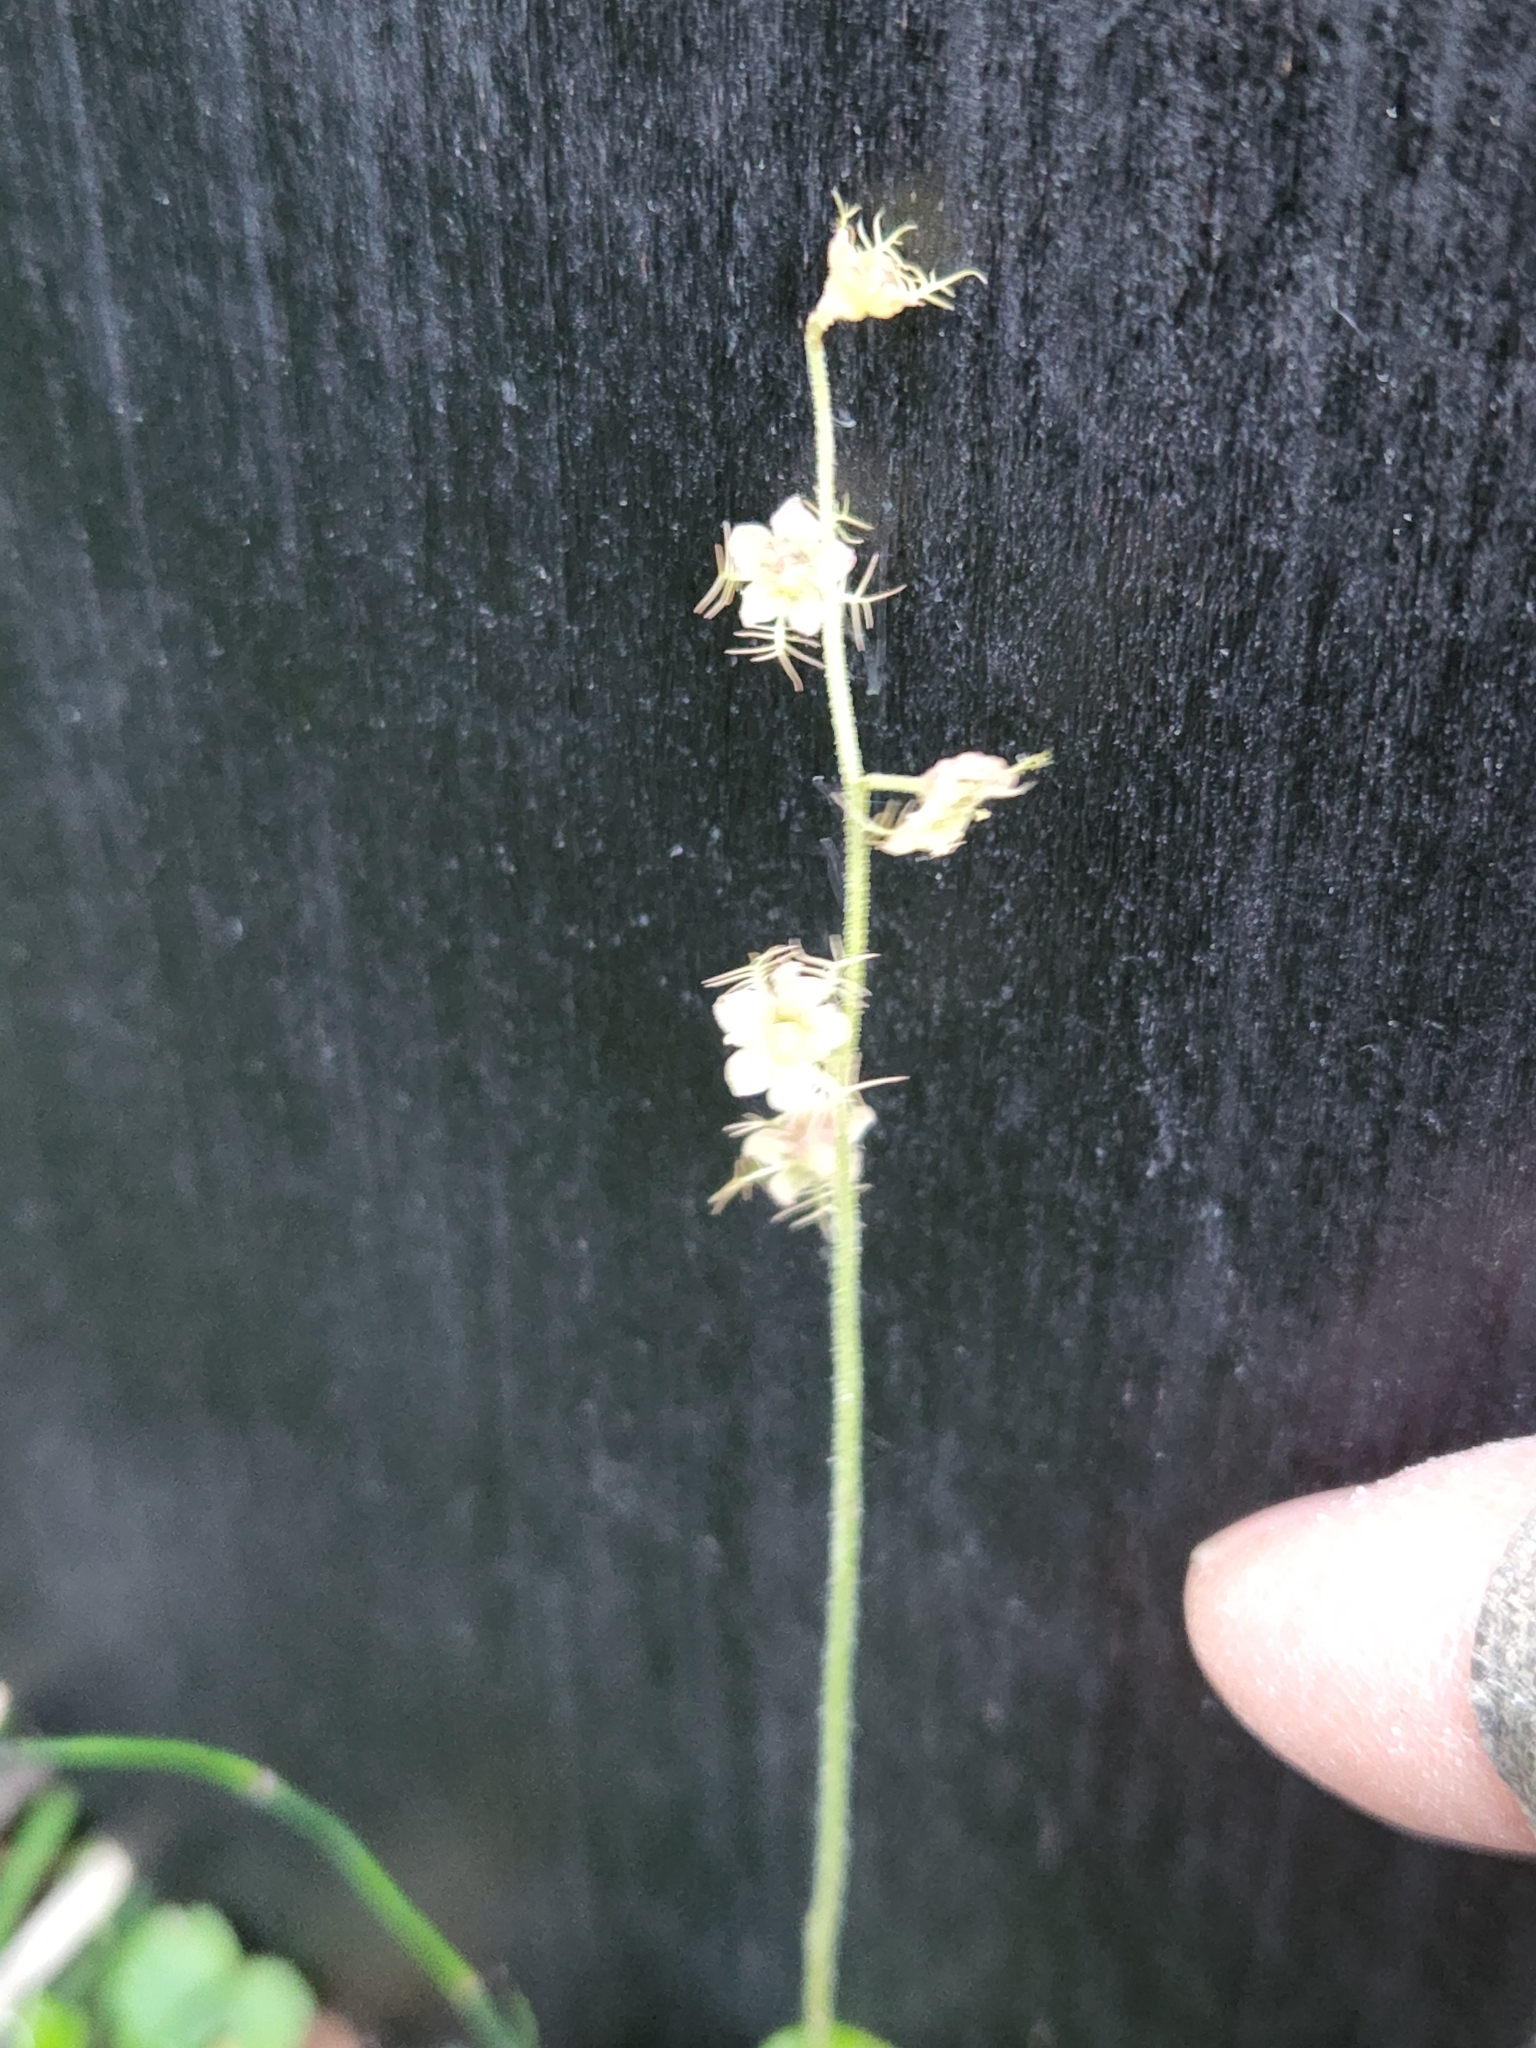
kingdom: Plantae
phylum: Tracheophyta
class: Magnoliopsida
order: Saxifragales
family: Saxifragaceae
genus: Mitella
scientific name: Mitella nuda
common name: Bare-stemmed bishop's-cap
